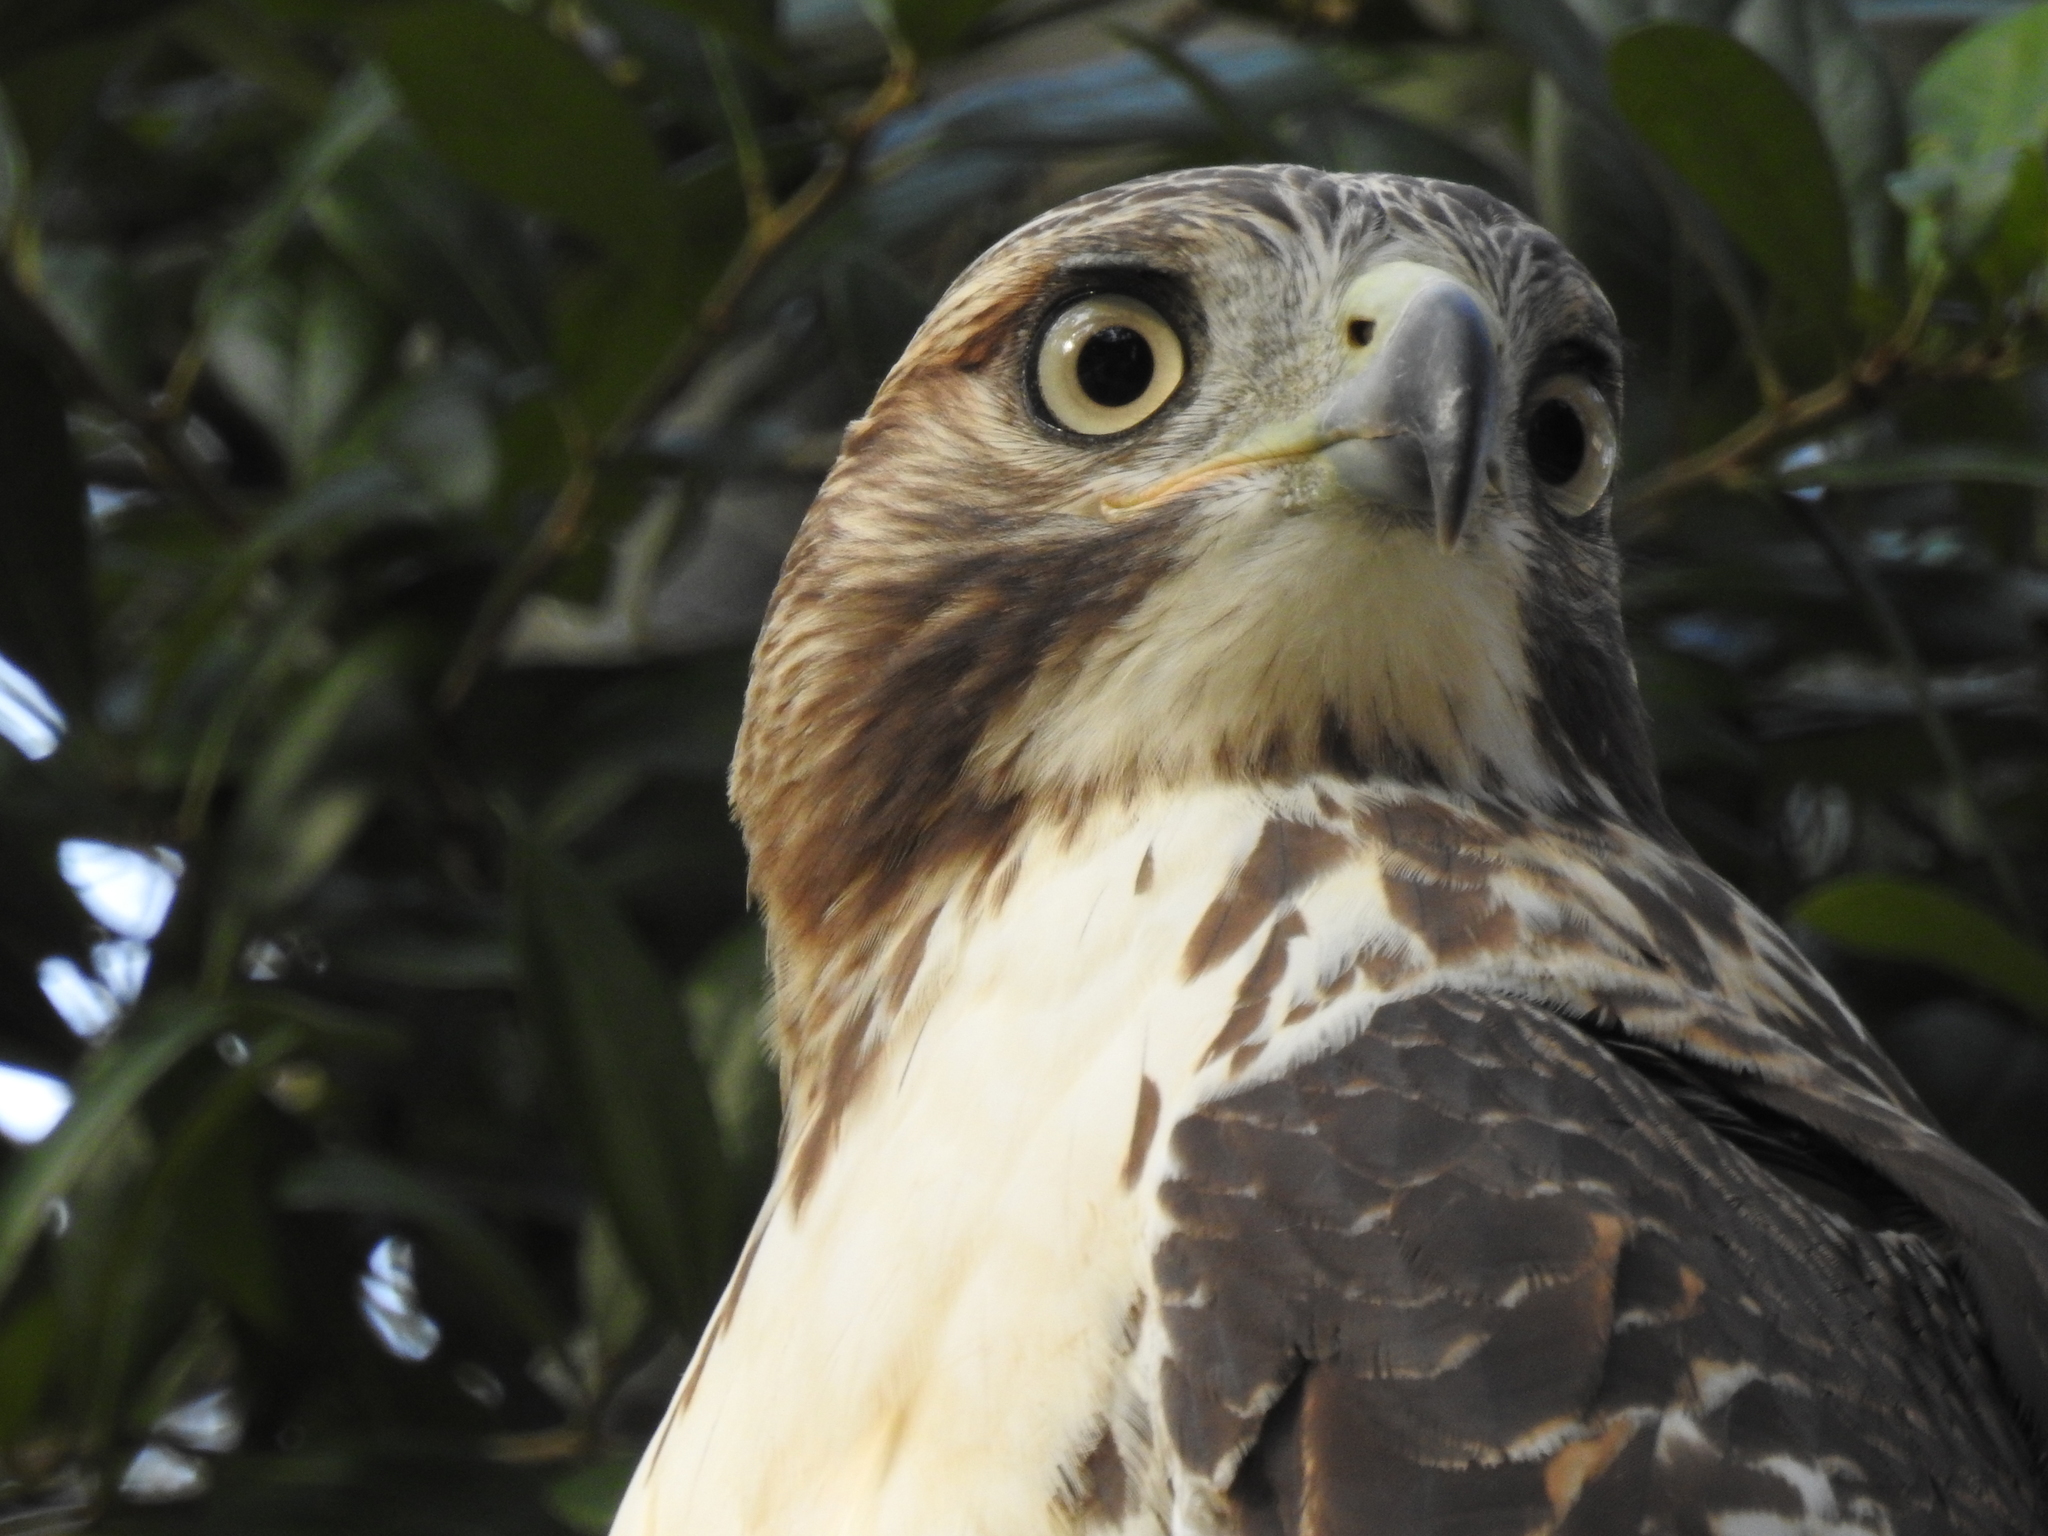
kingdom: Animalia
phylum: Chordata
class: Aves
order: Accipitriformes
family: Accipitridae
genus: Buteo
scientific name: Buteo jamaicensis
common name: Red-tailed hawk
